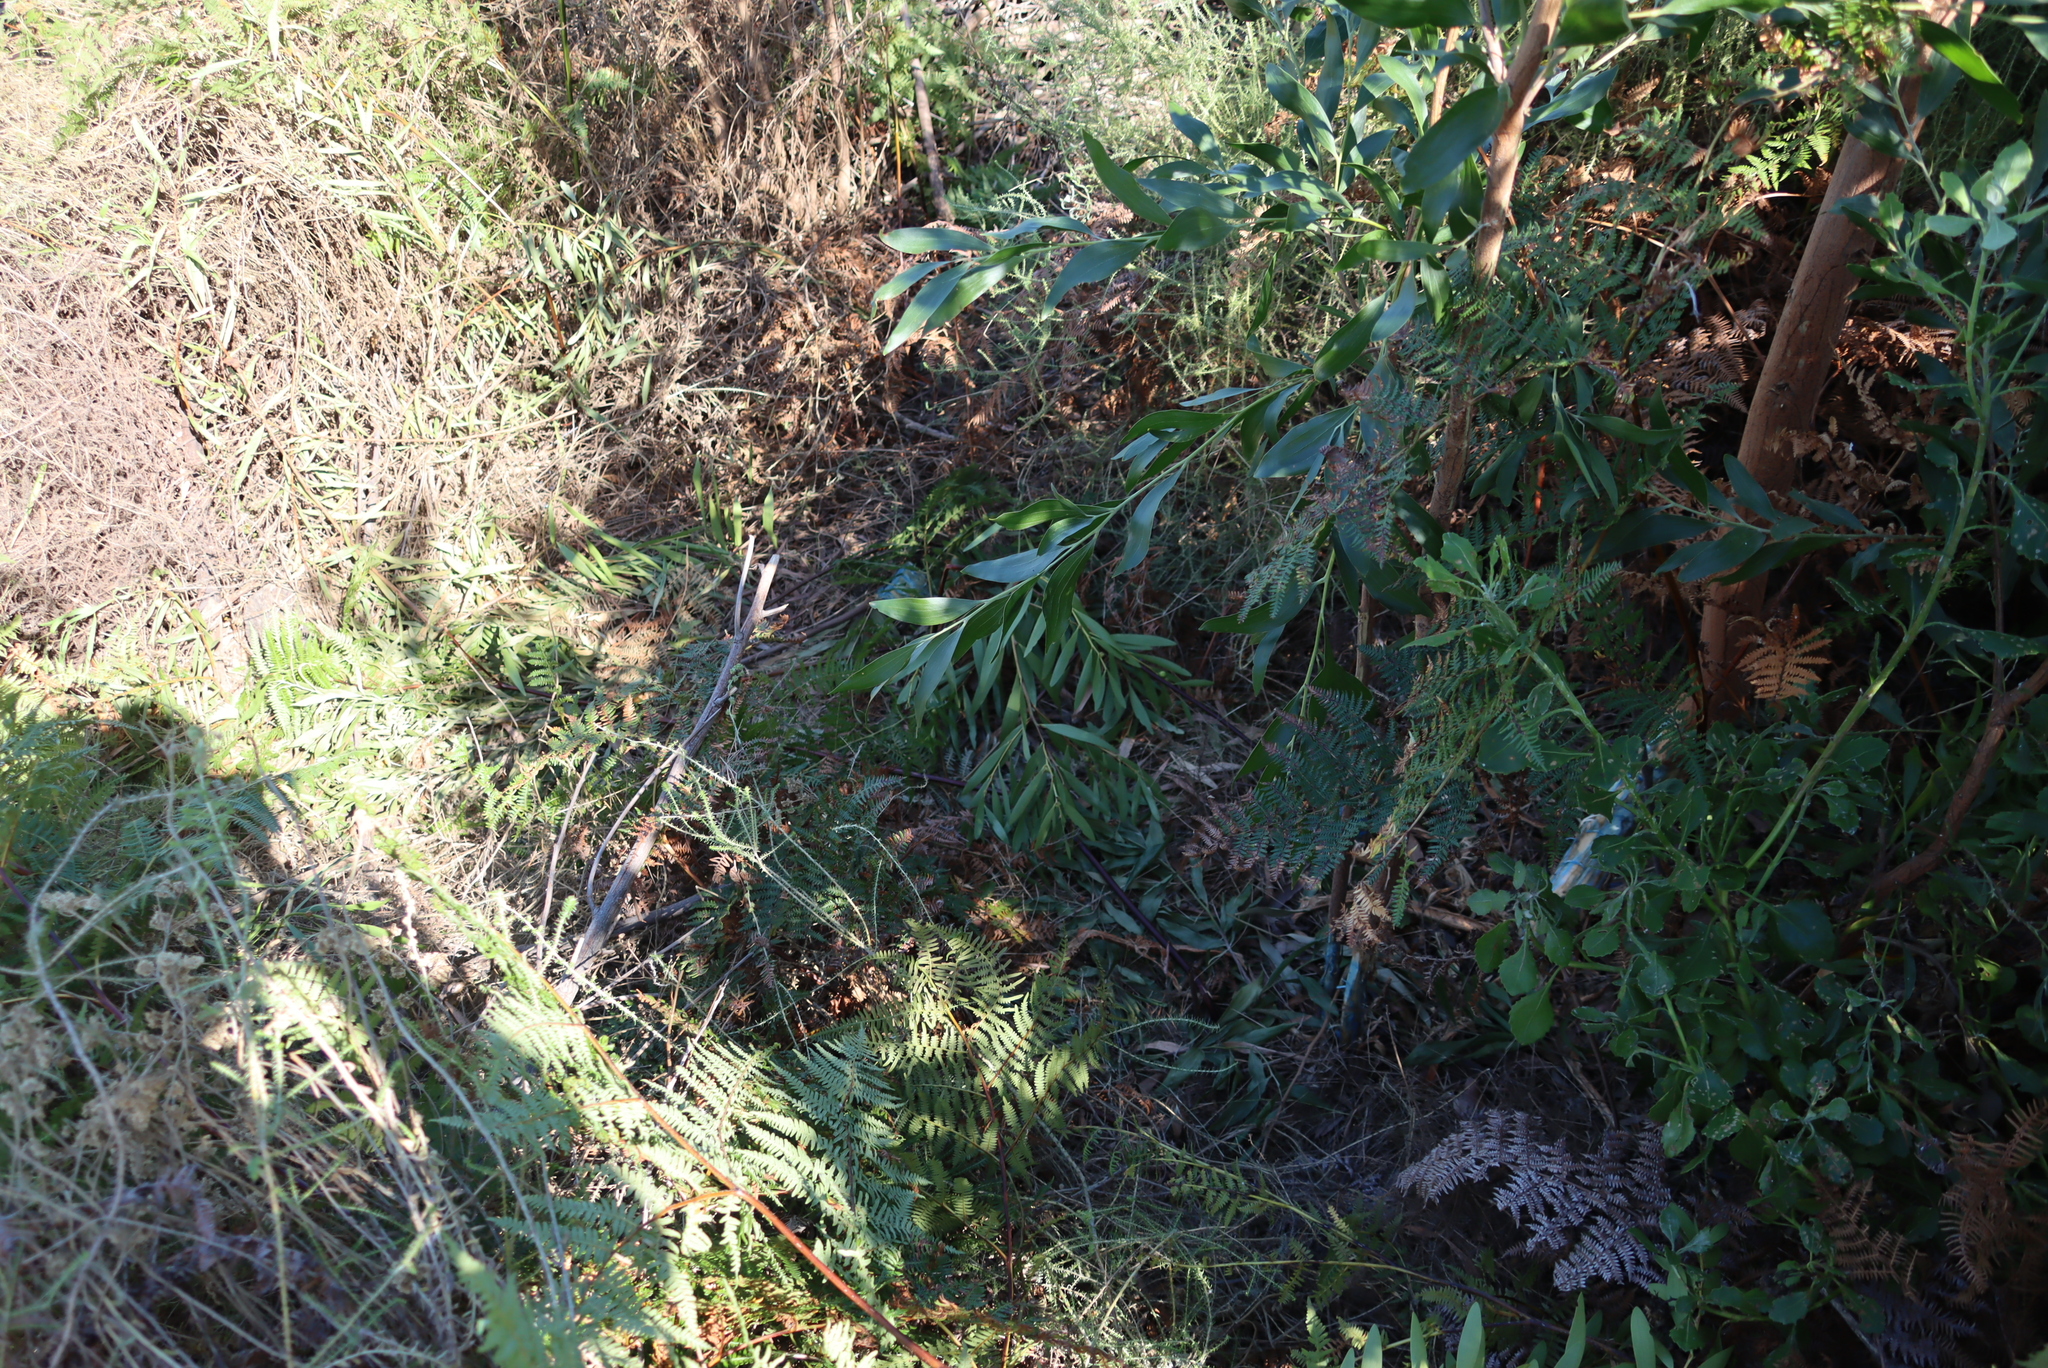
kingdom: Plantae
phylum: Tracheophyta
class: Magnoliopsida
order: Fabales
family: Fabaceae
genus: Acacia
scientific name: Acacia melanoxylon
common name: Blackwood
